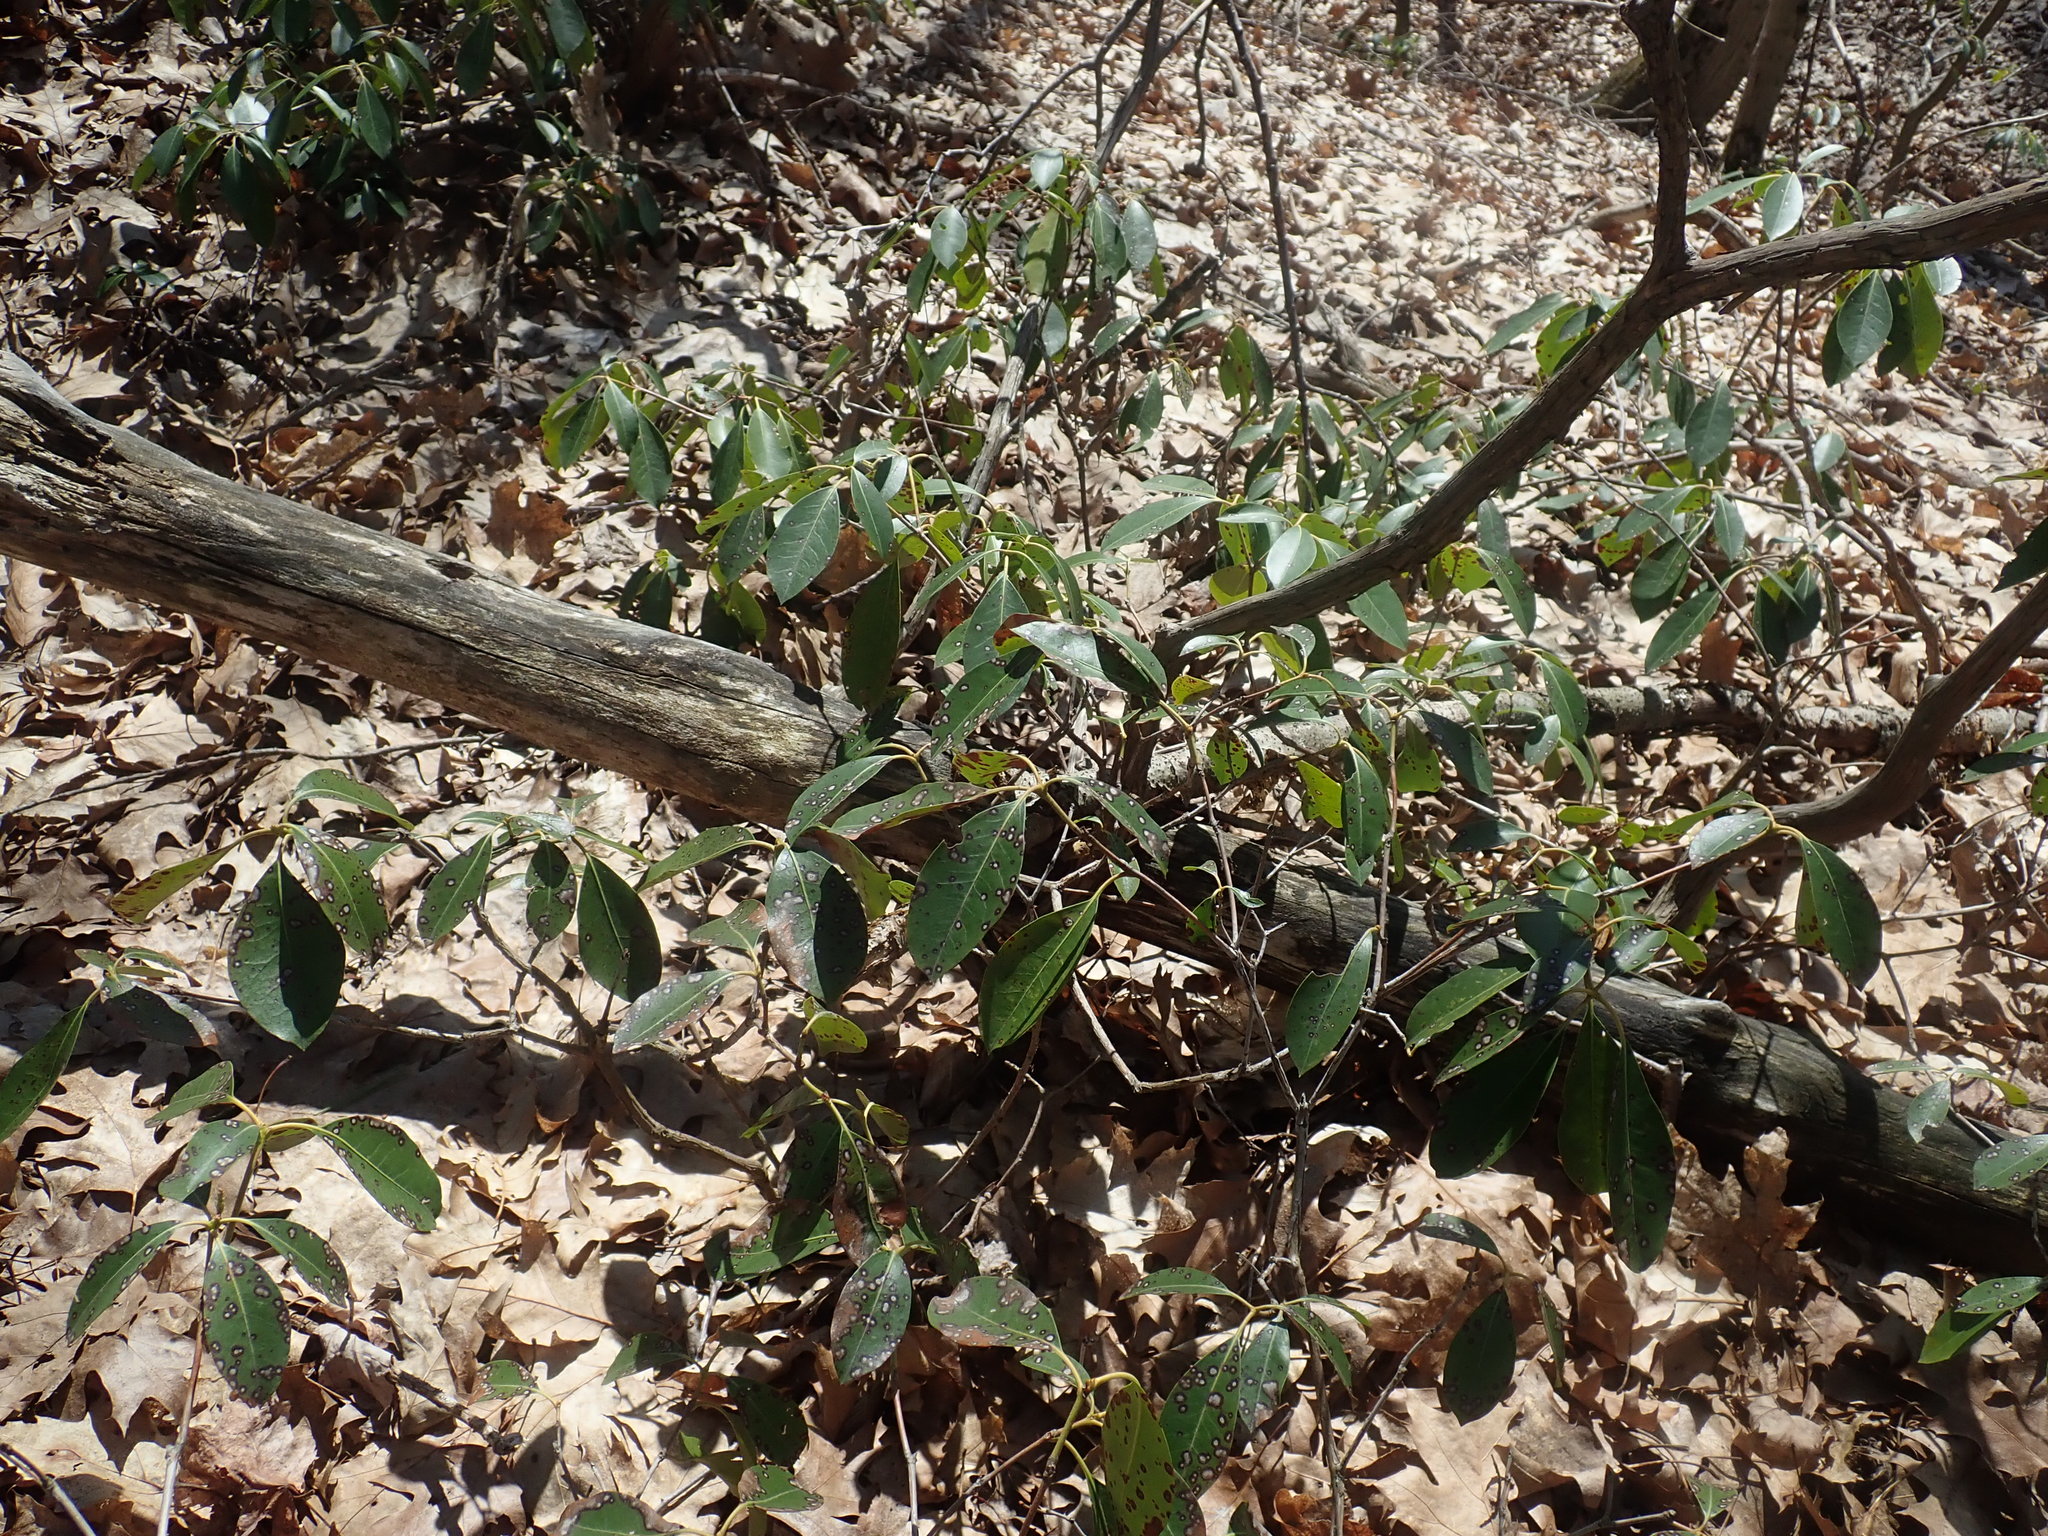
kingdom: Plantae
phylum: Tracheophyta
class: Magnoliopsida
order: Ericales
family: Ericaceae
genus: Kalmia
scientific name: Kalmia latifolia
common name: Mountain-laurel
